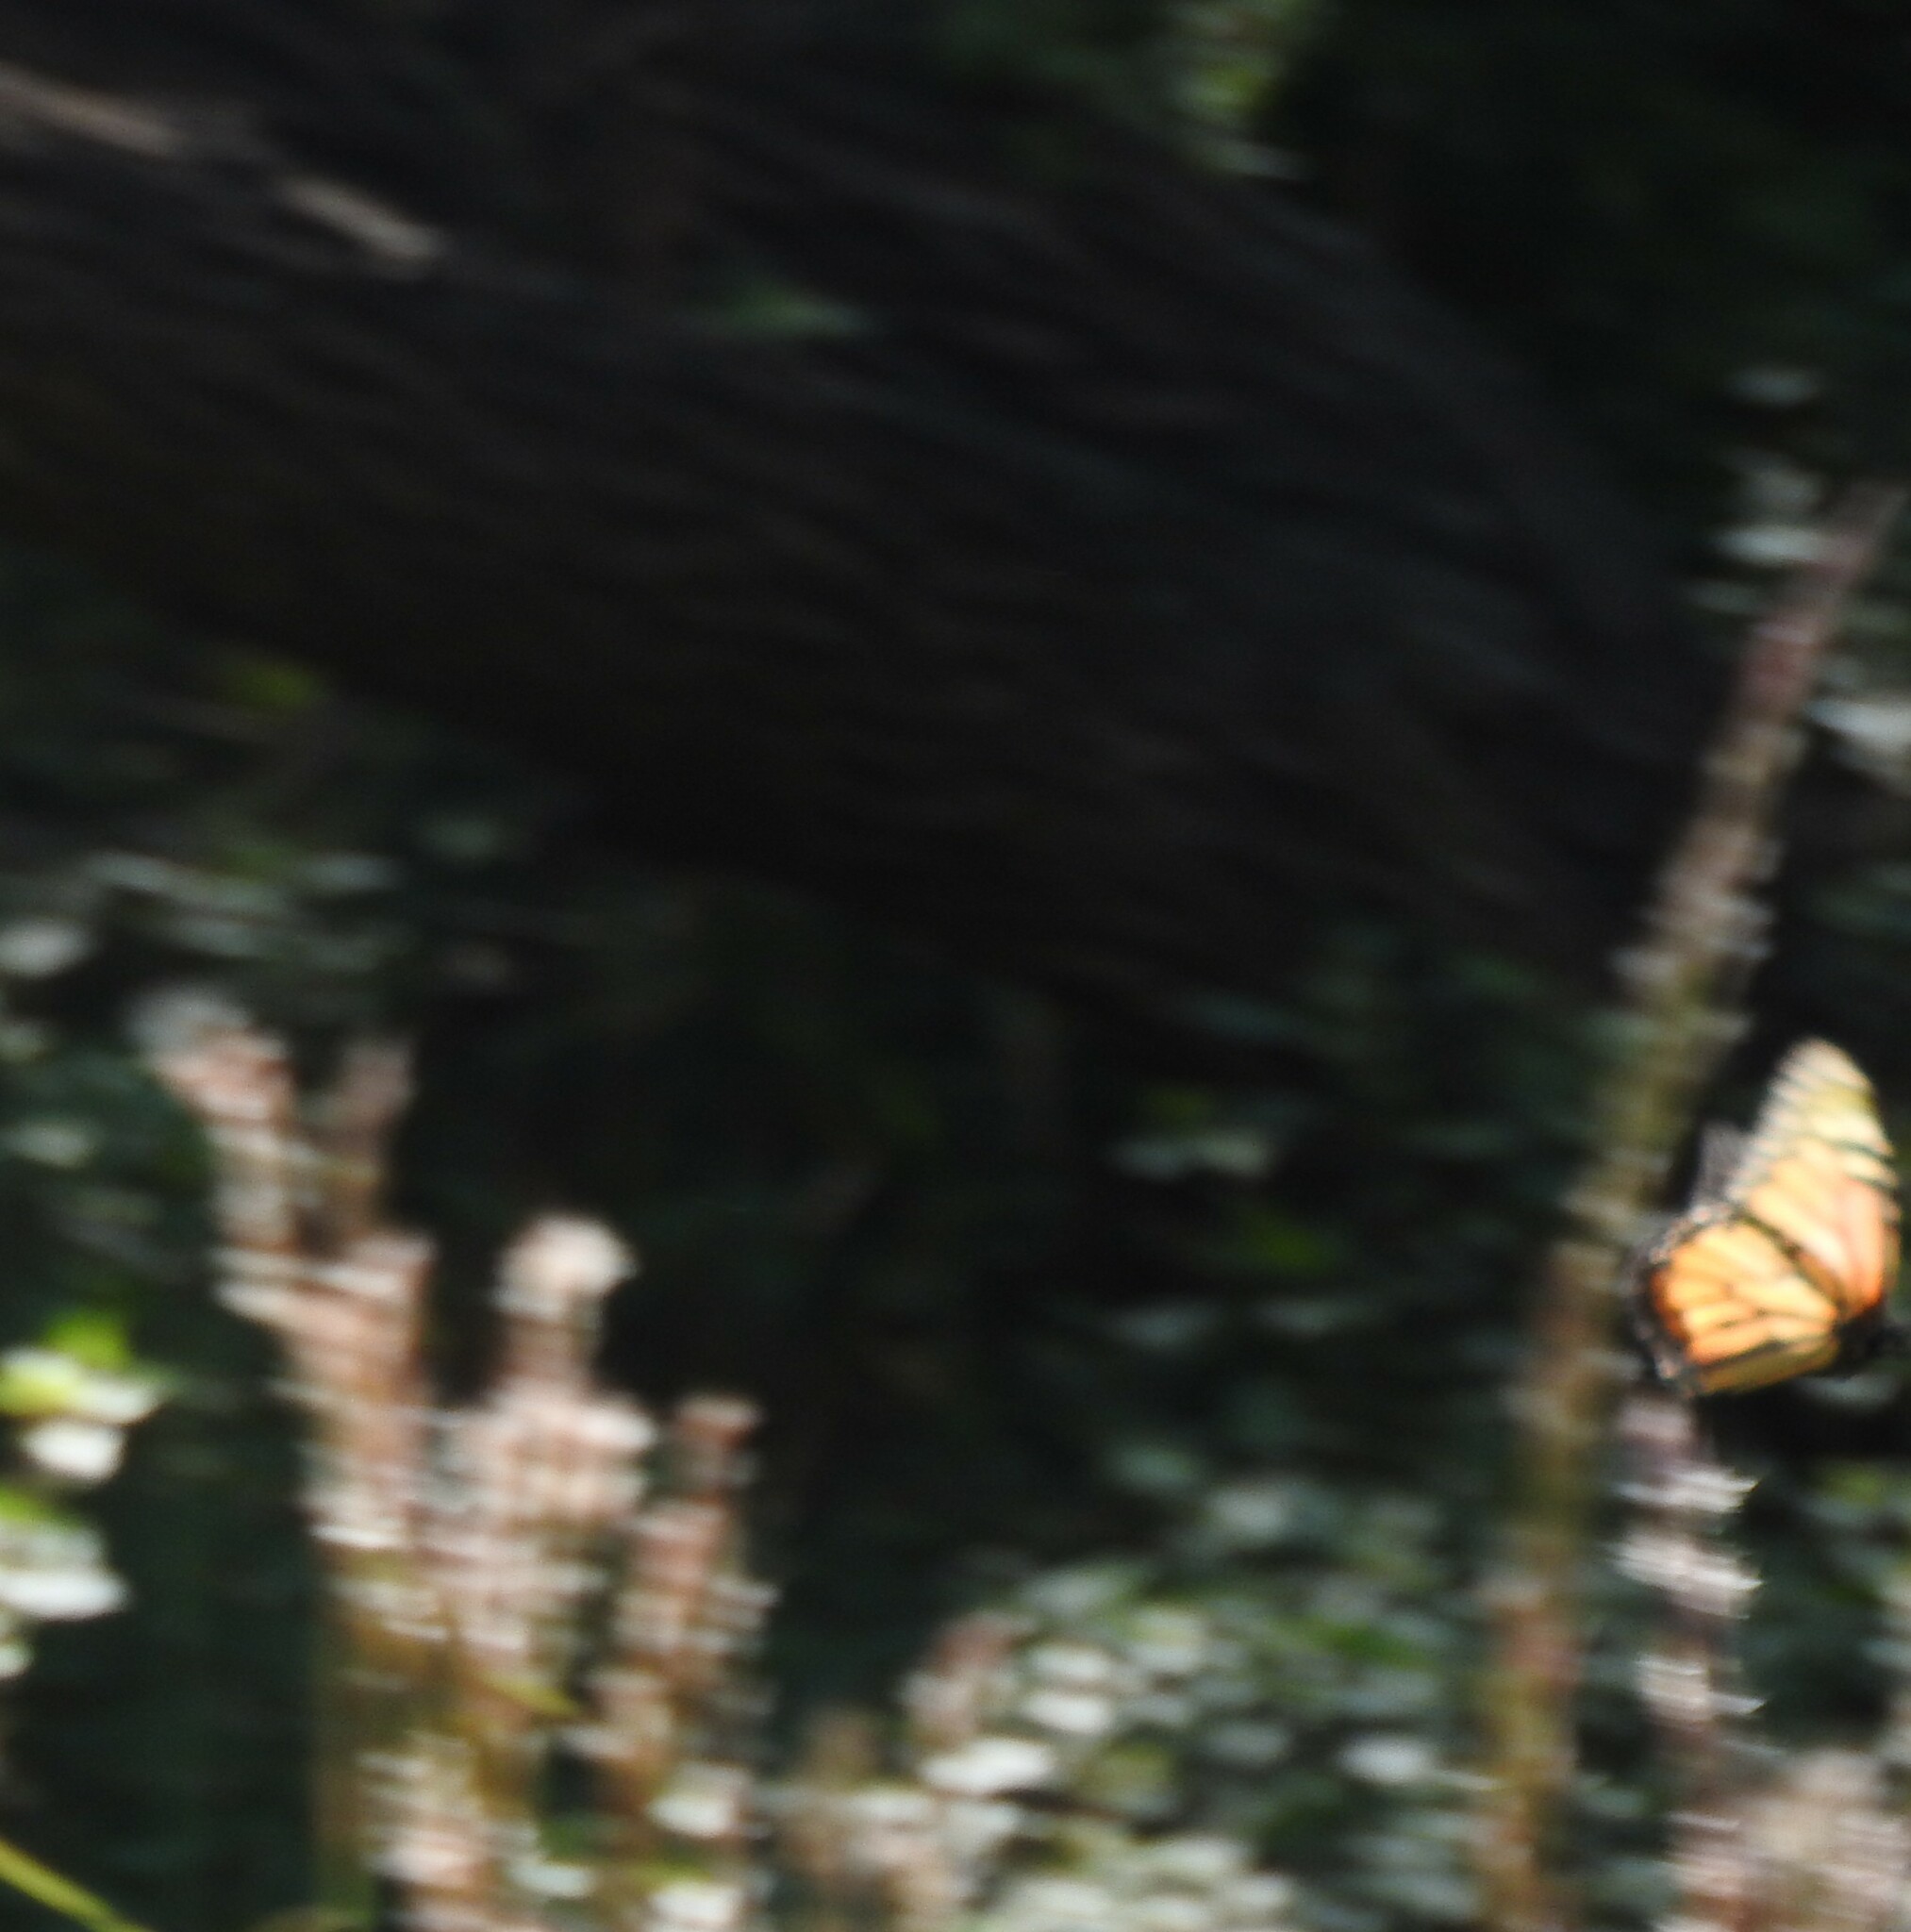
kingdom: Animalia
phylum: Arthropoda
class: Insecta
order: Lepidoptera
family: Nymphalidae
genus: Danaus
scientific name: Danaus plexippus
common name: Monarch
